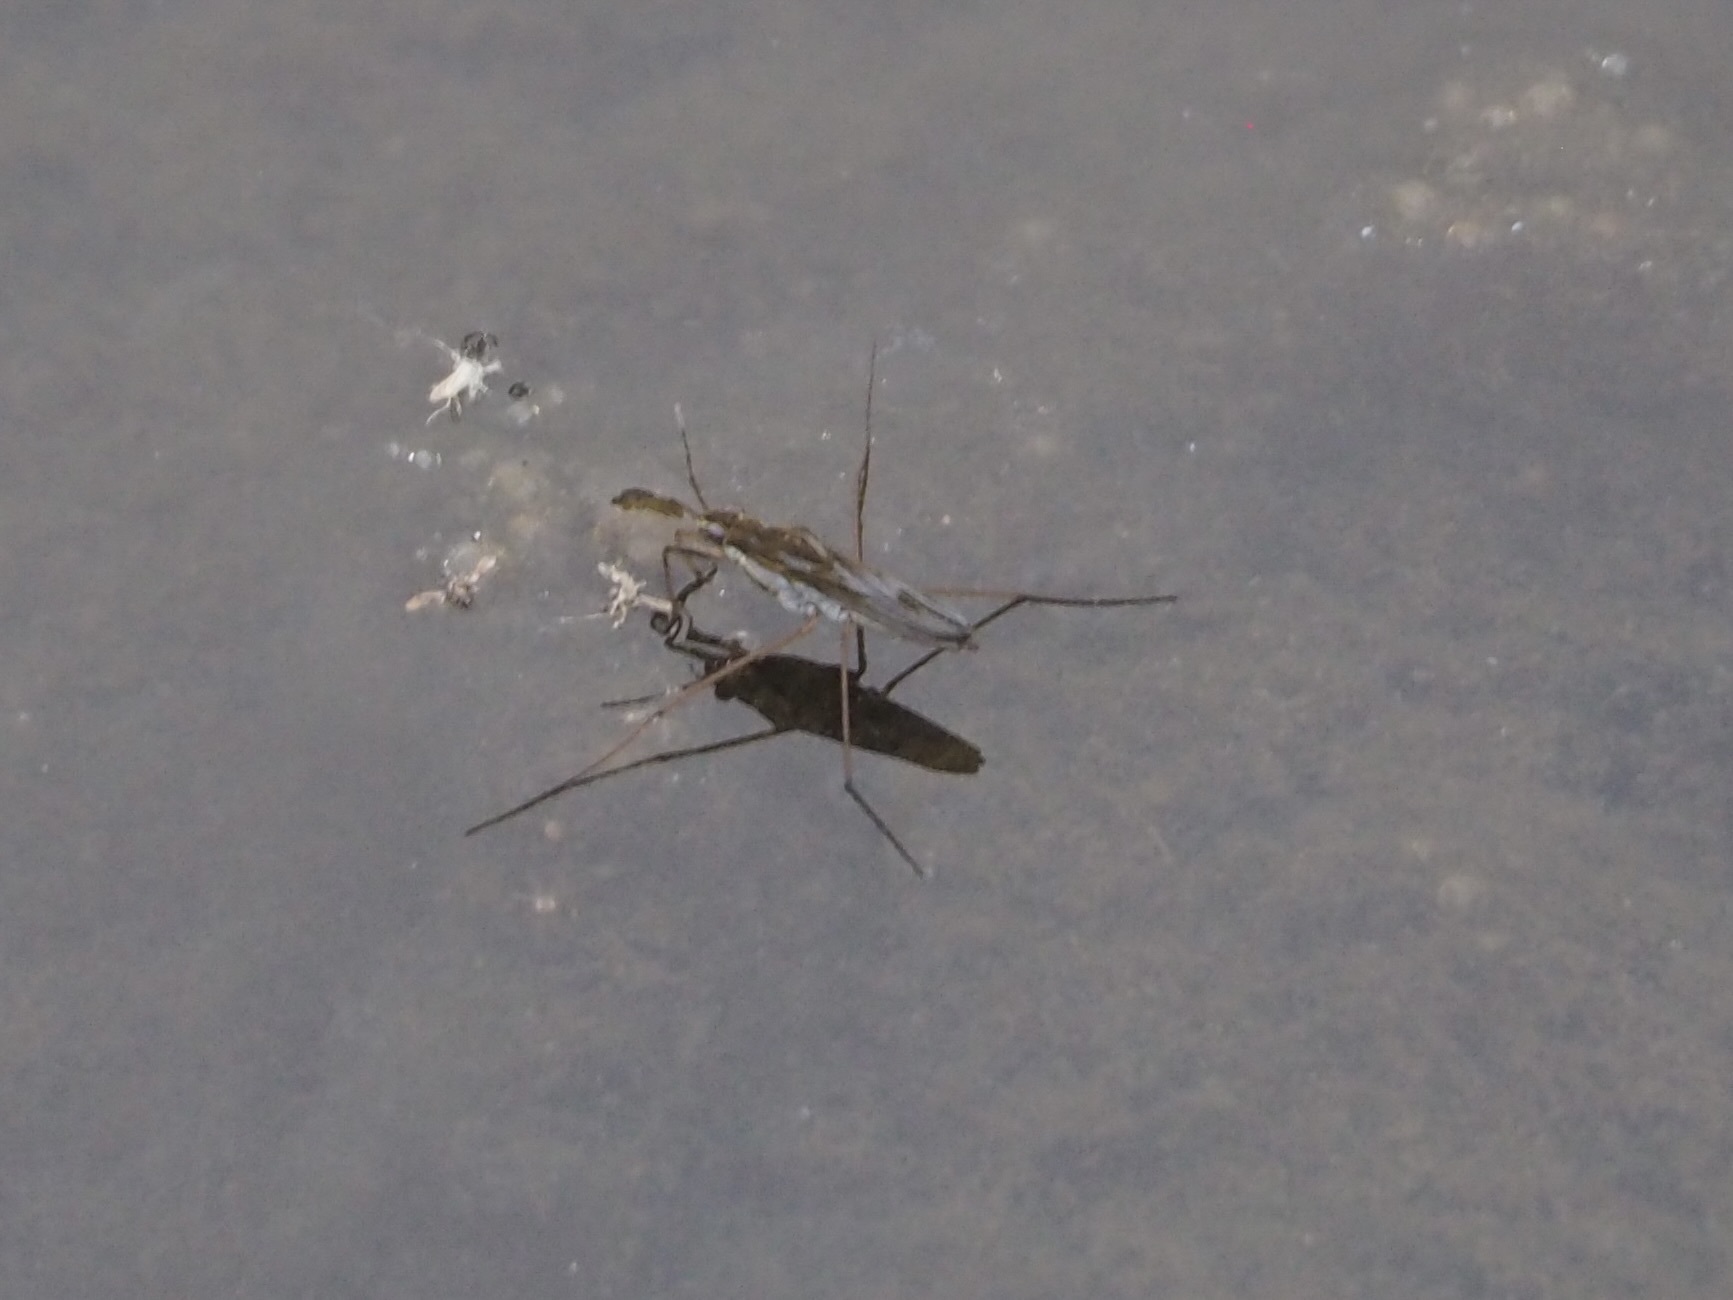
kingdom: Animalia
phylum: Arthropoda
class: Insecta
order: Hemiptera
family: Gerridae
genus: Gerris
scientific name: Gerris latiabdominis
